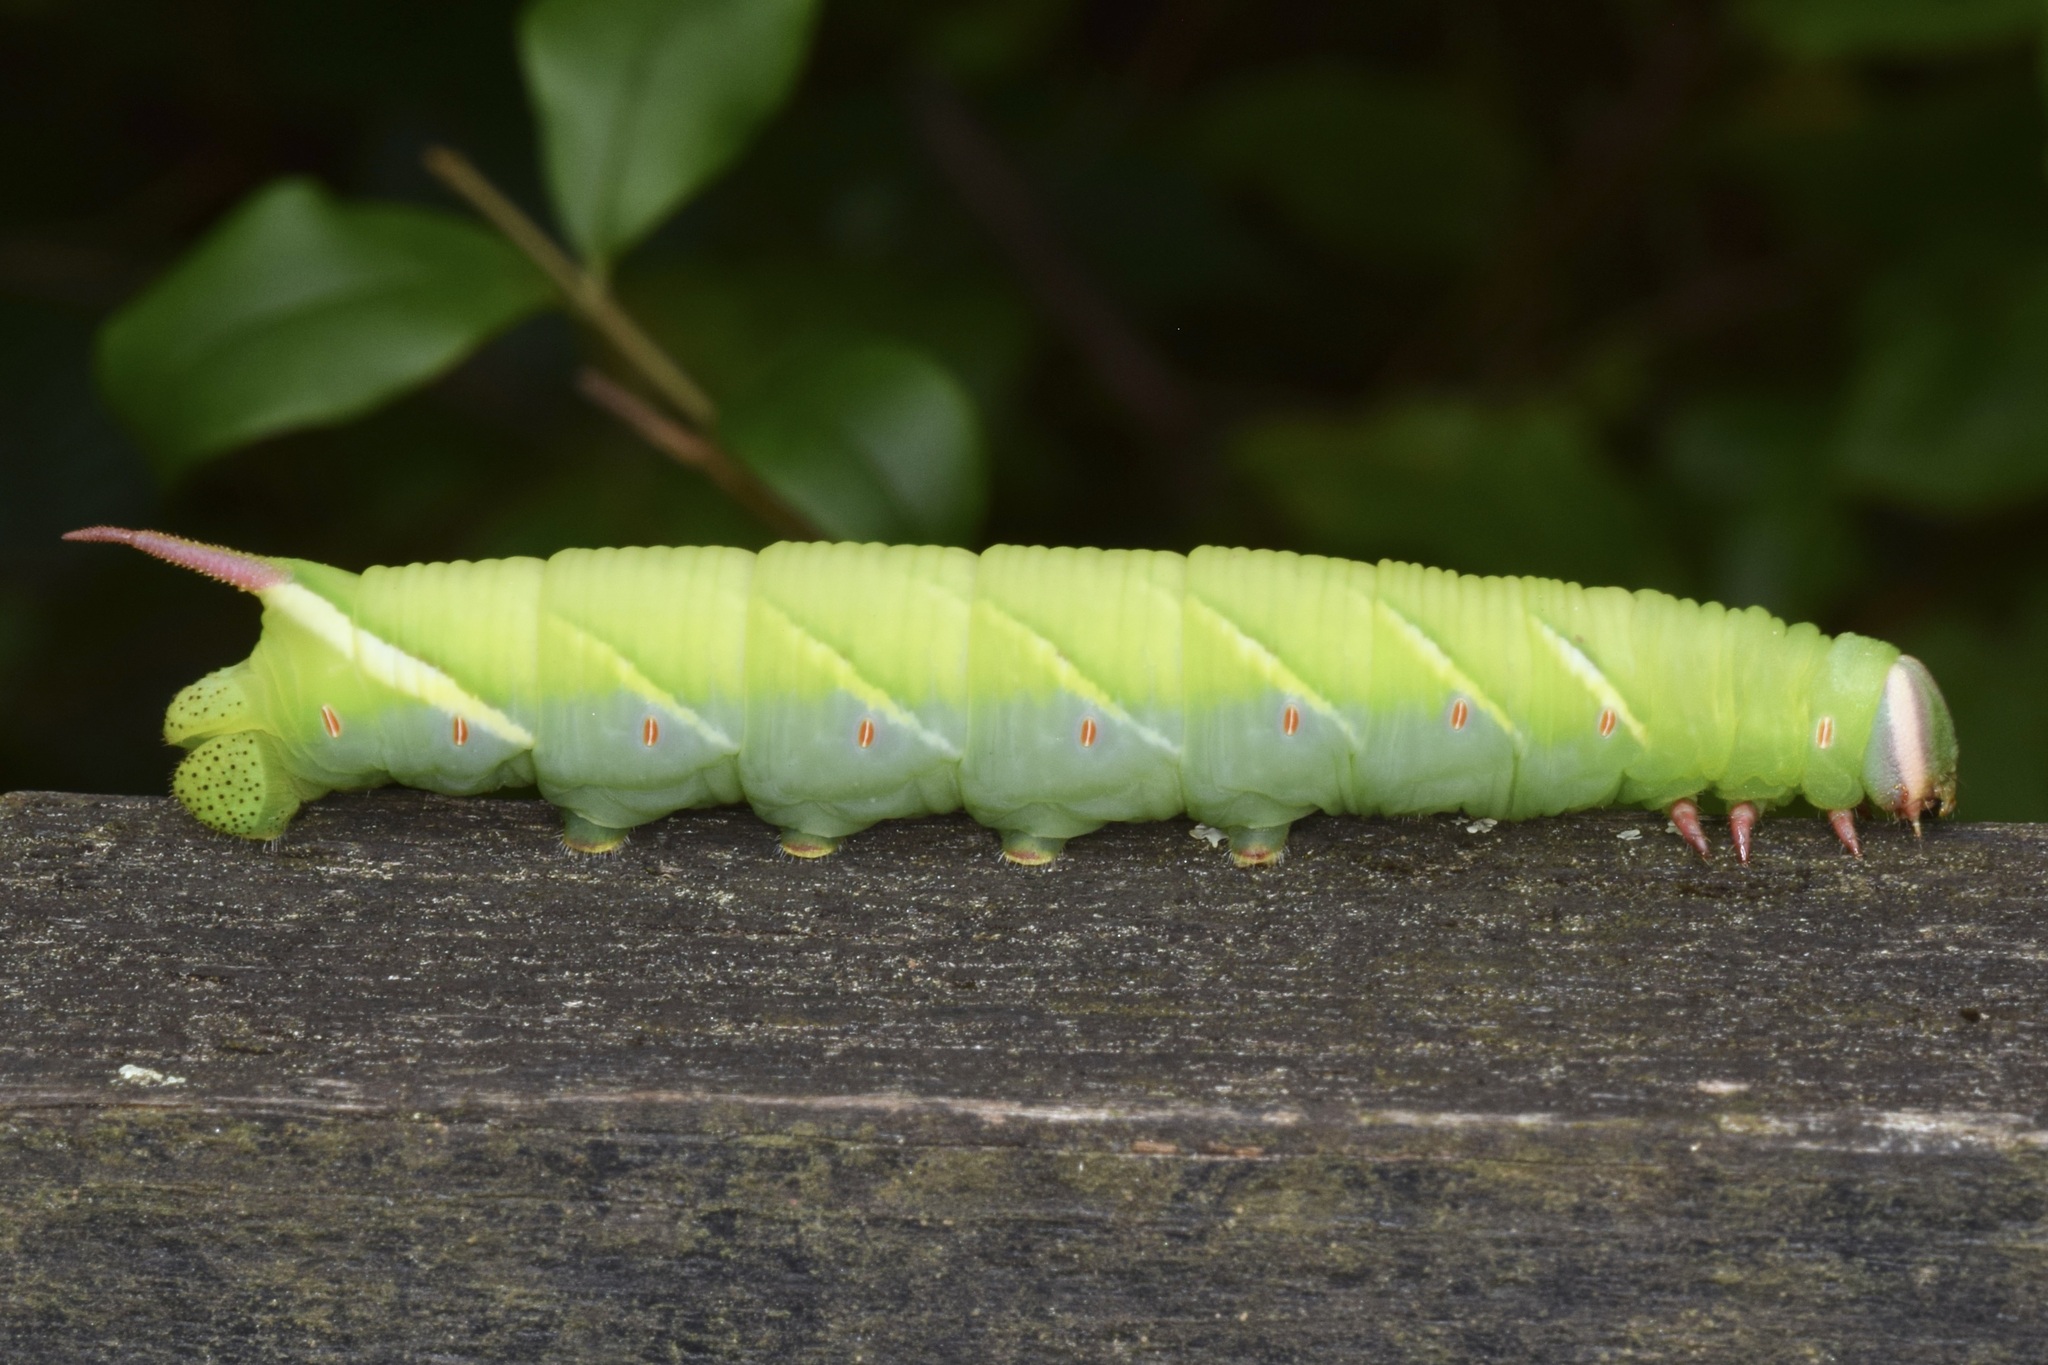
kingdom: Animalia
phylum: Arthropoda
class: Insecta
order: Lepidoptera
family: Sphingidae
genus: Ceratomia
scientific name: Ceratomia undulosa
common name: Waved sphinx
